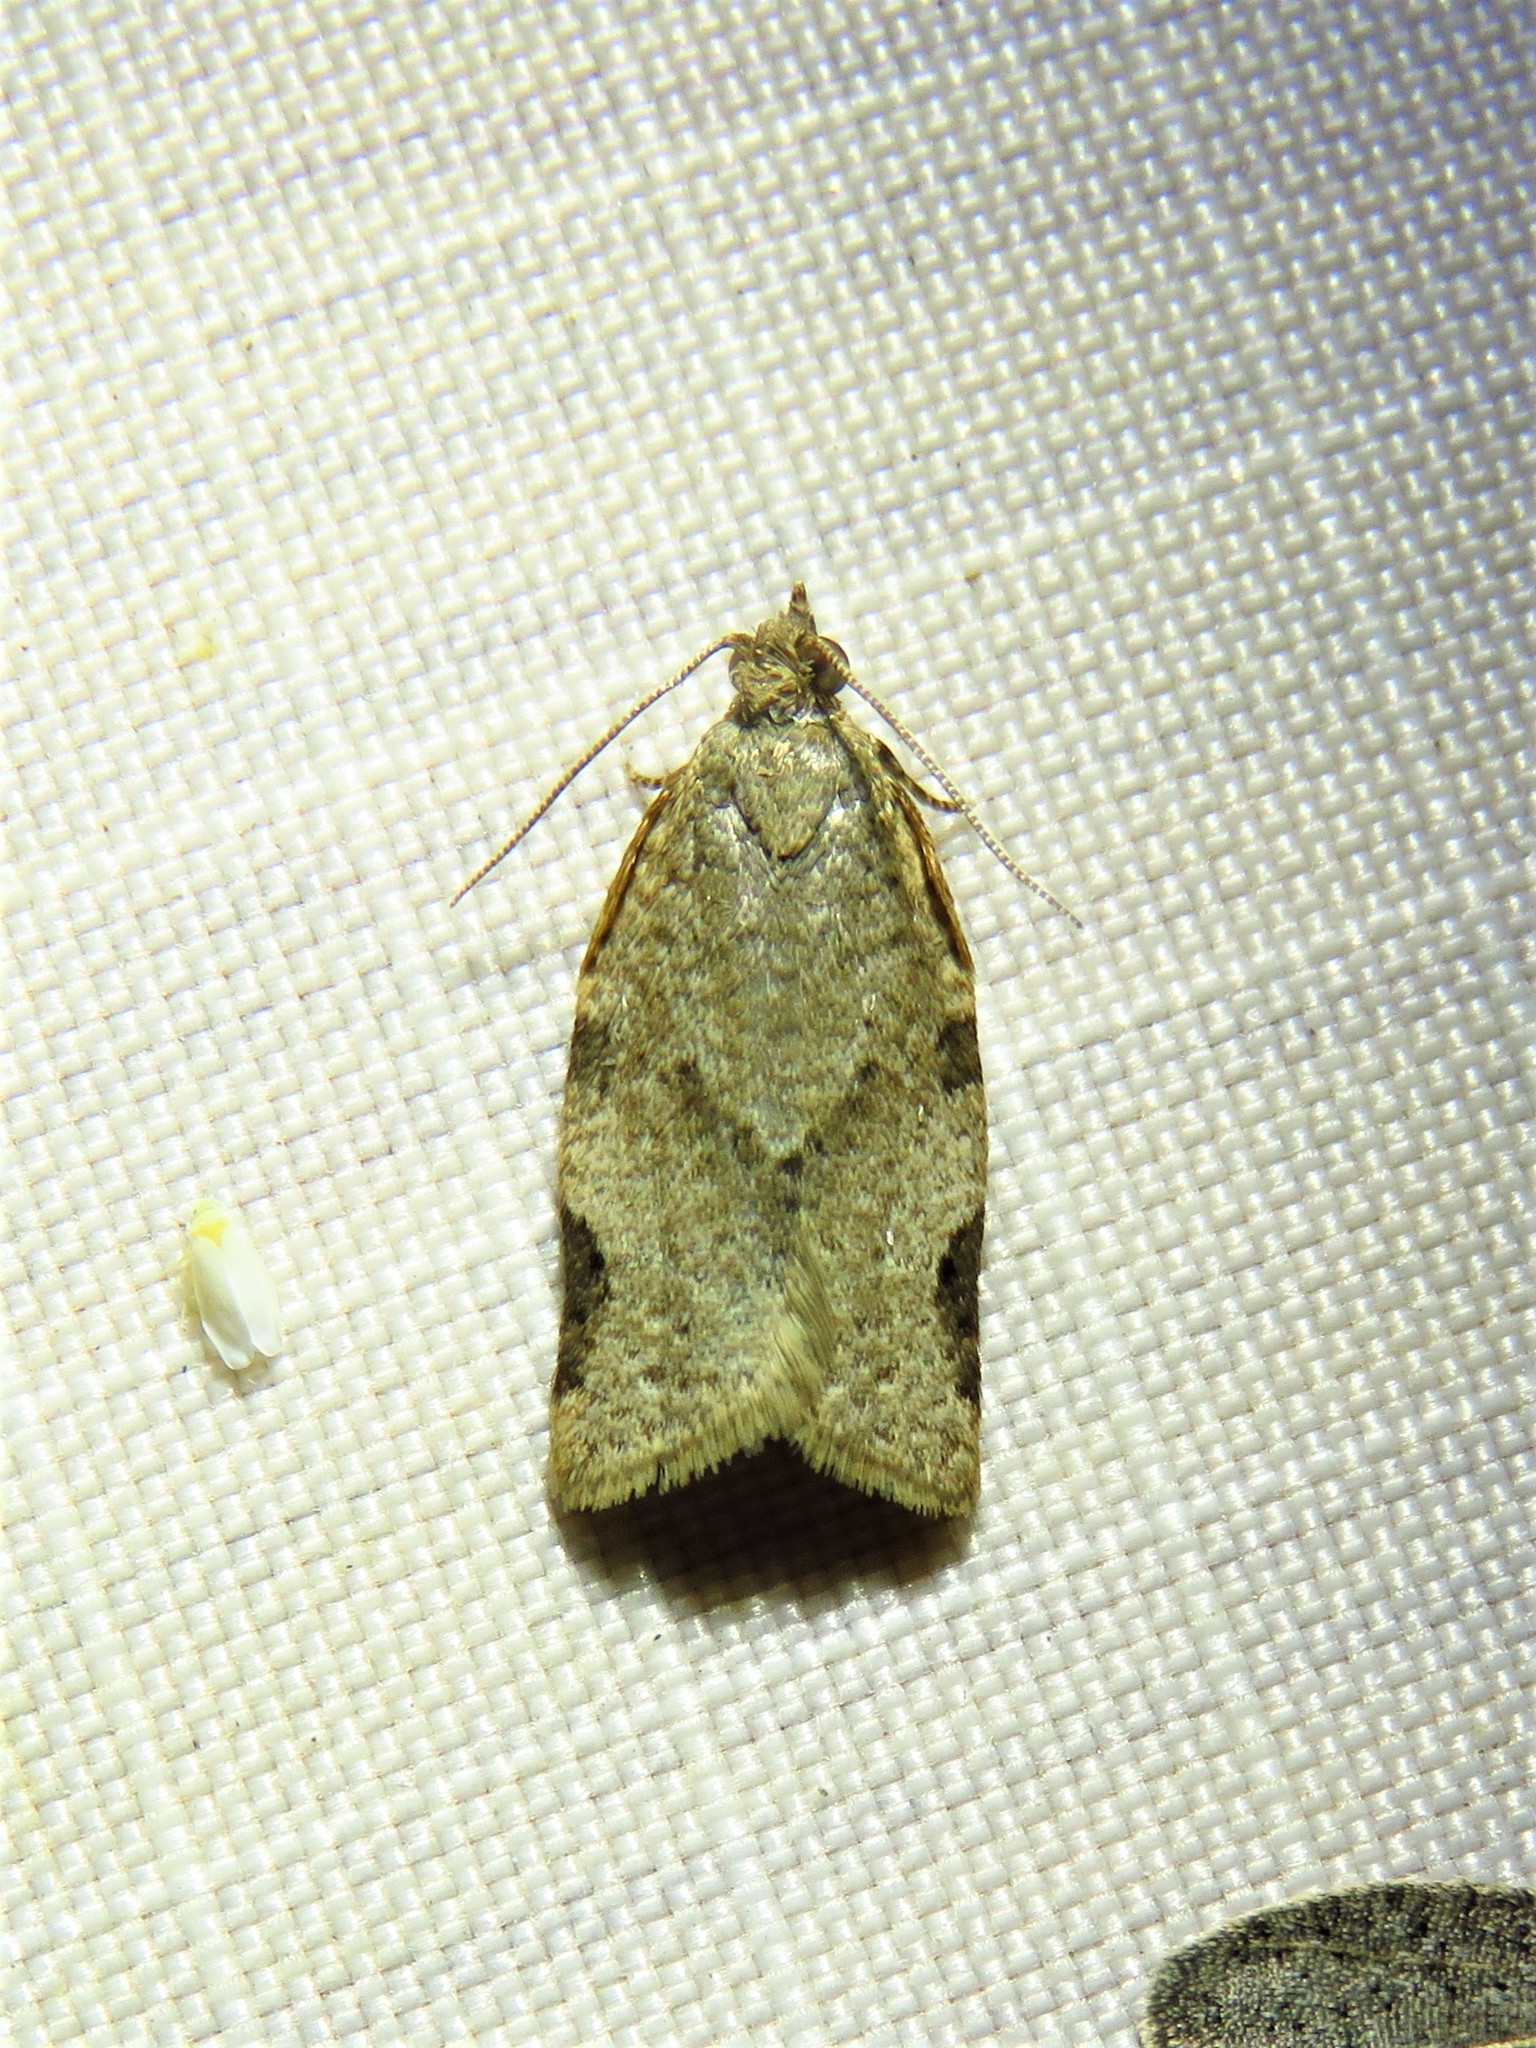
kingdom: Animalia
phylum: Arthropoda
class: Insecta
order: Lepidoptera
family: Tortricidae
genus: Clepsis
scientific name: Clepsis virescana
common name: Greenish apple moth
